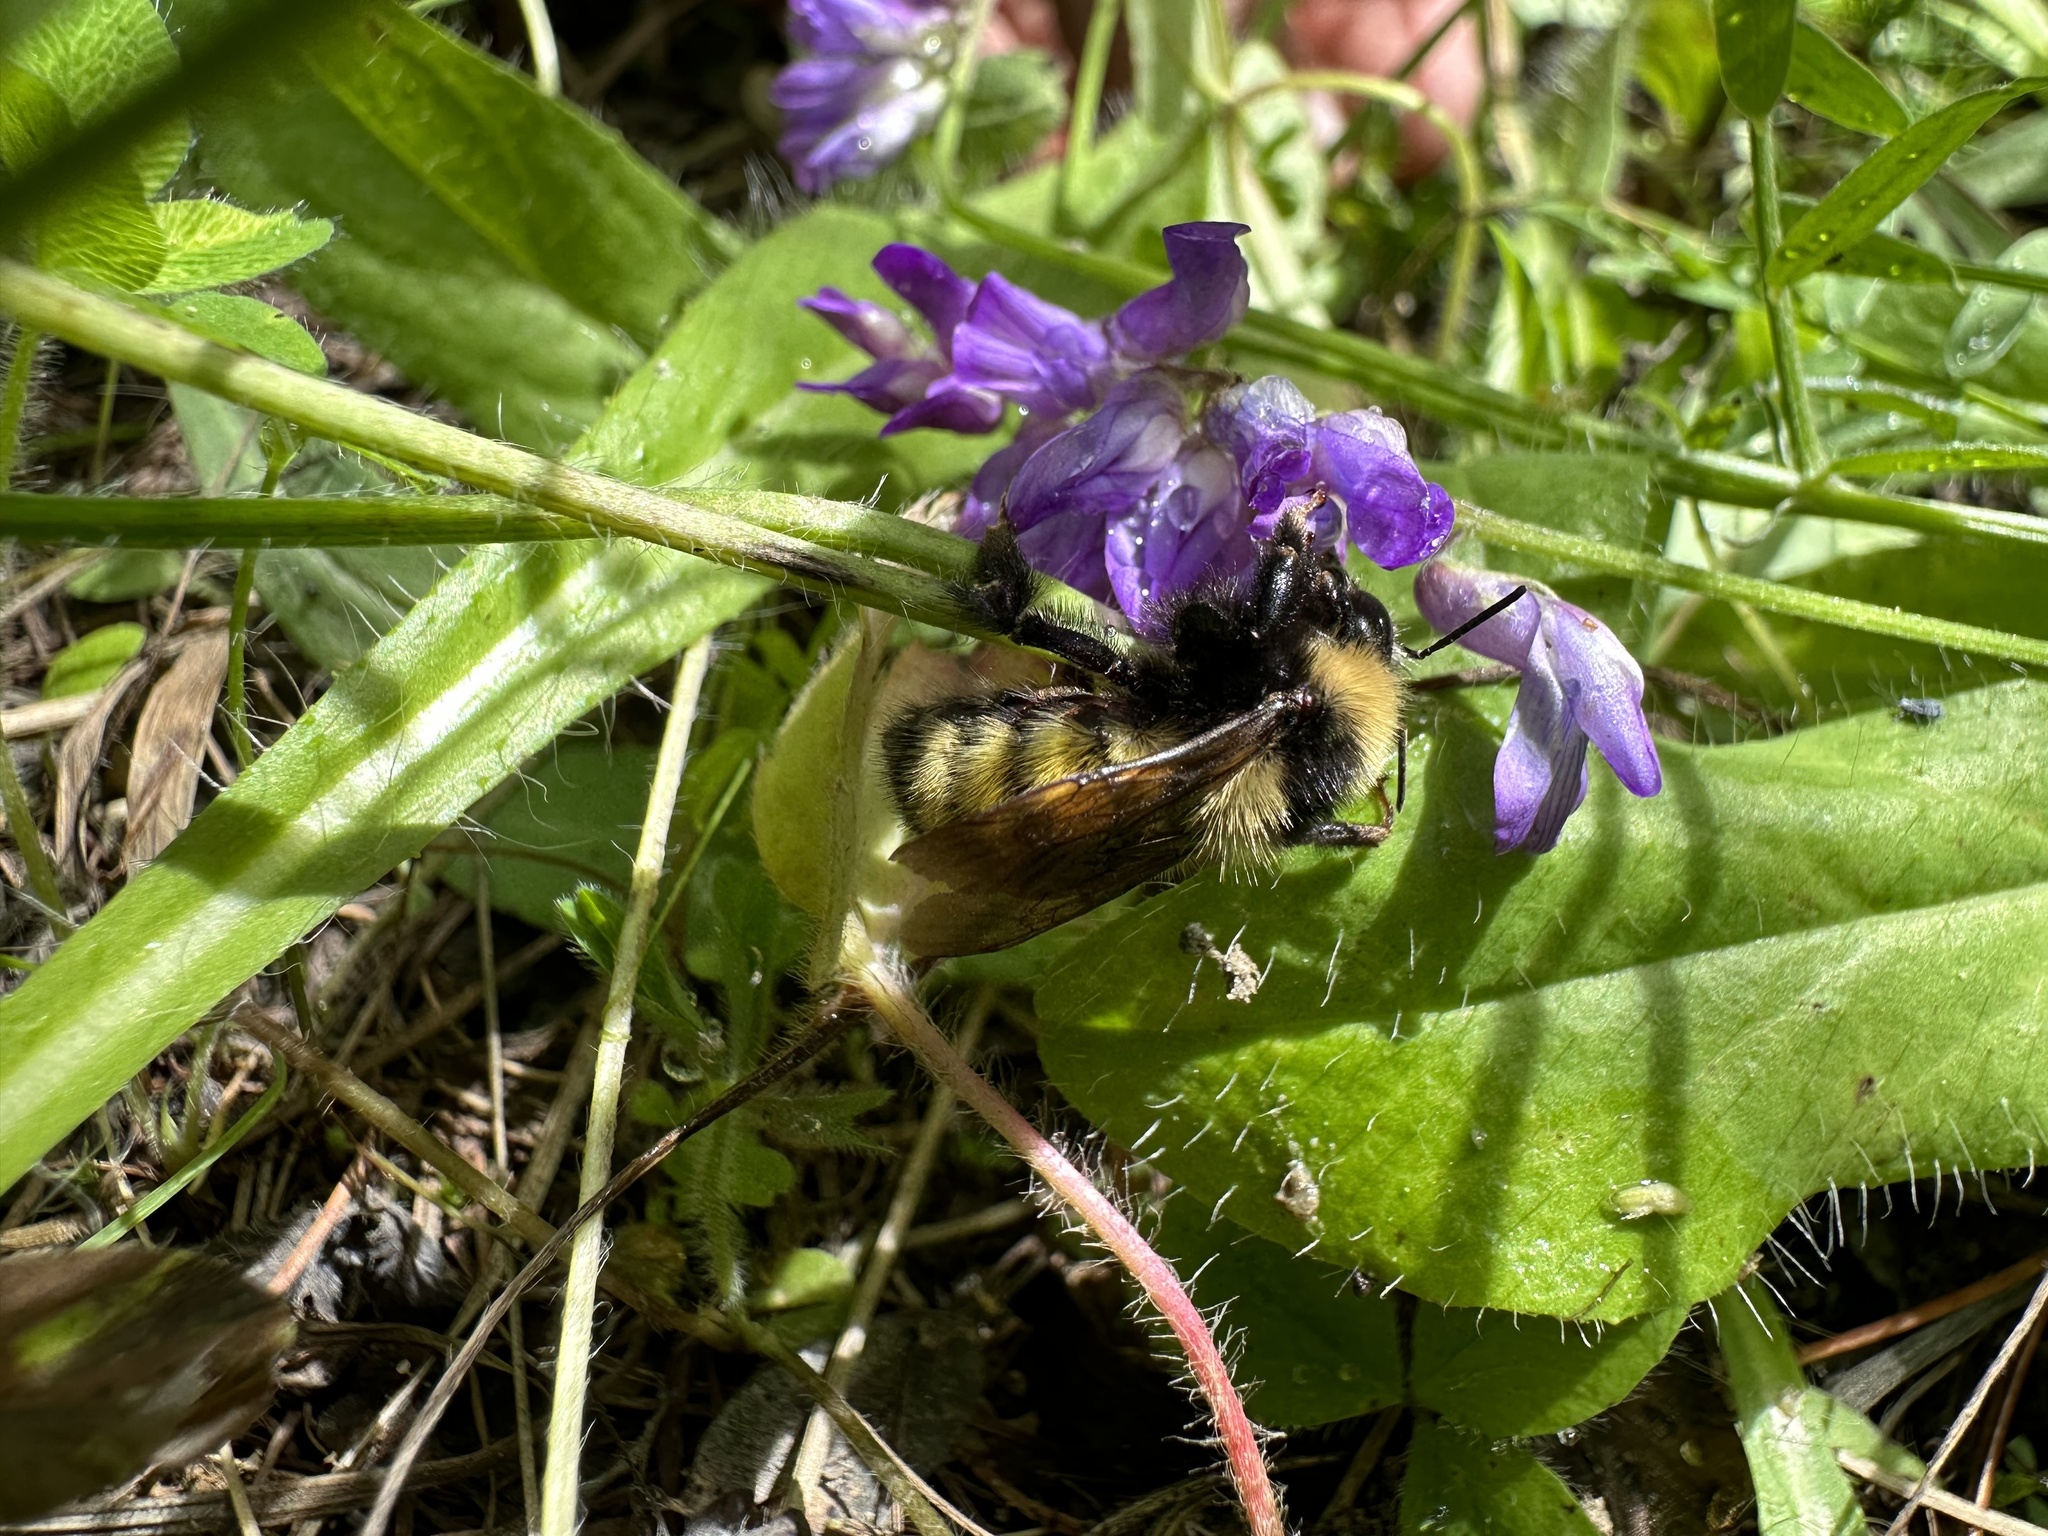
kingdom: Animalia
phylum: Arthropoda
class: Insecta
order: Hymenoptera
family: Apidae
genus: Bombus
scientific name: Bombus borealis
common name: Northern amber bumble bee
